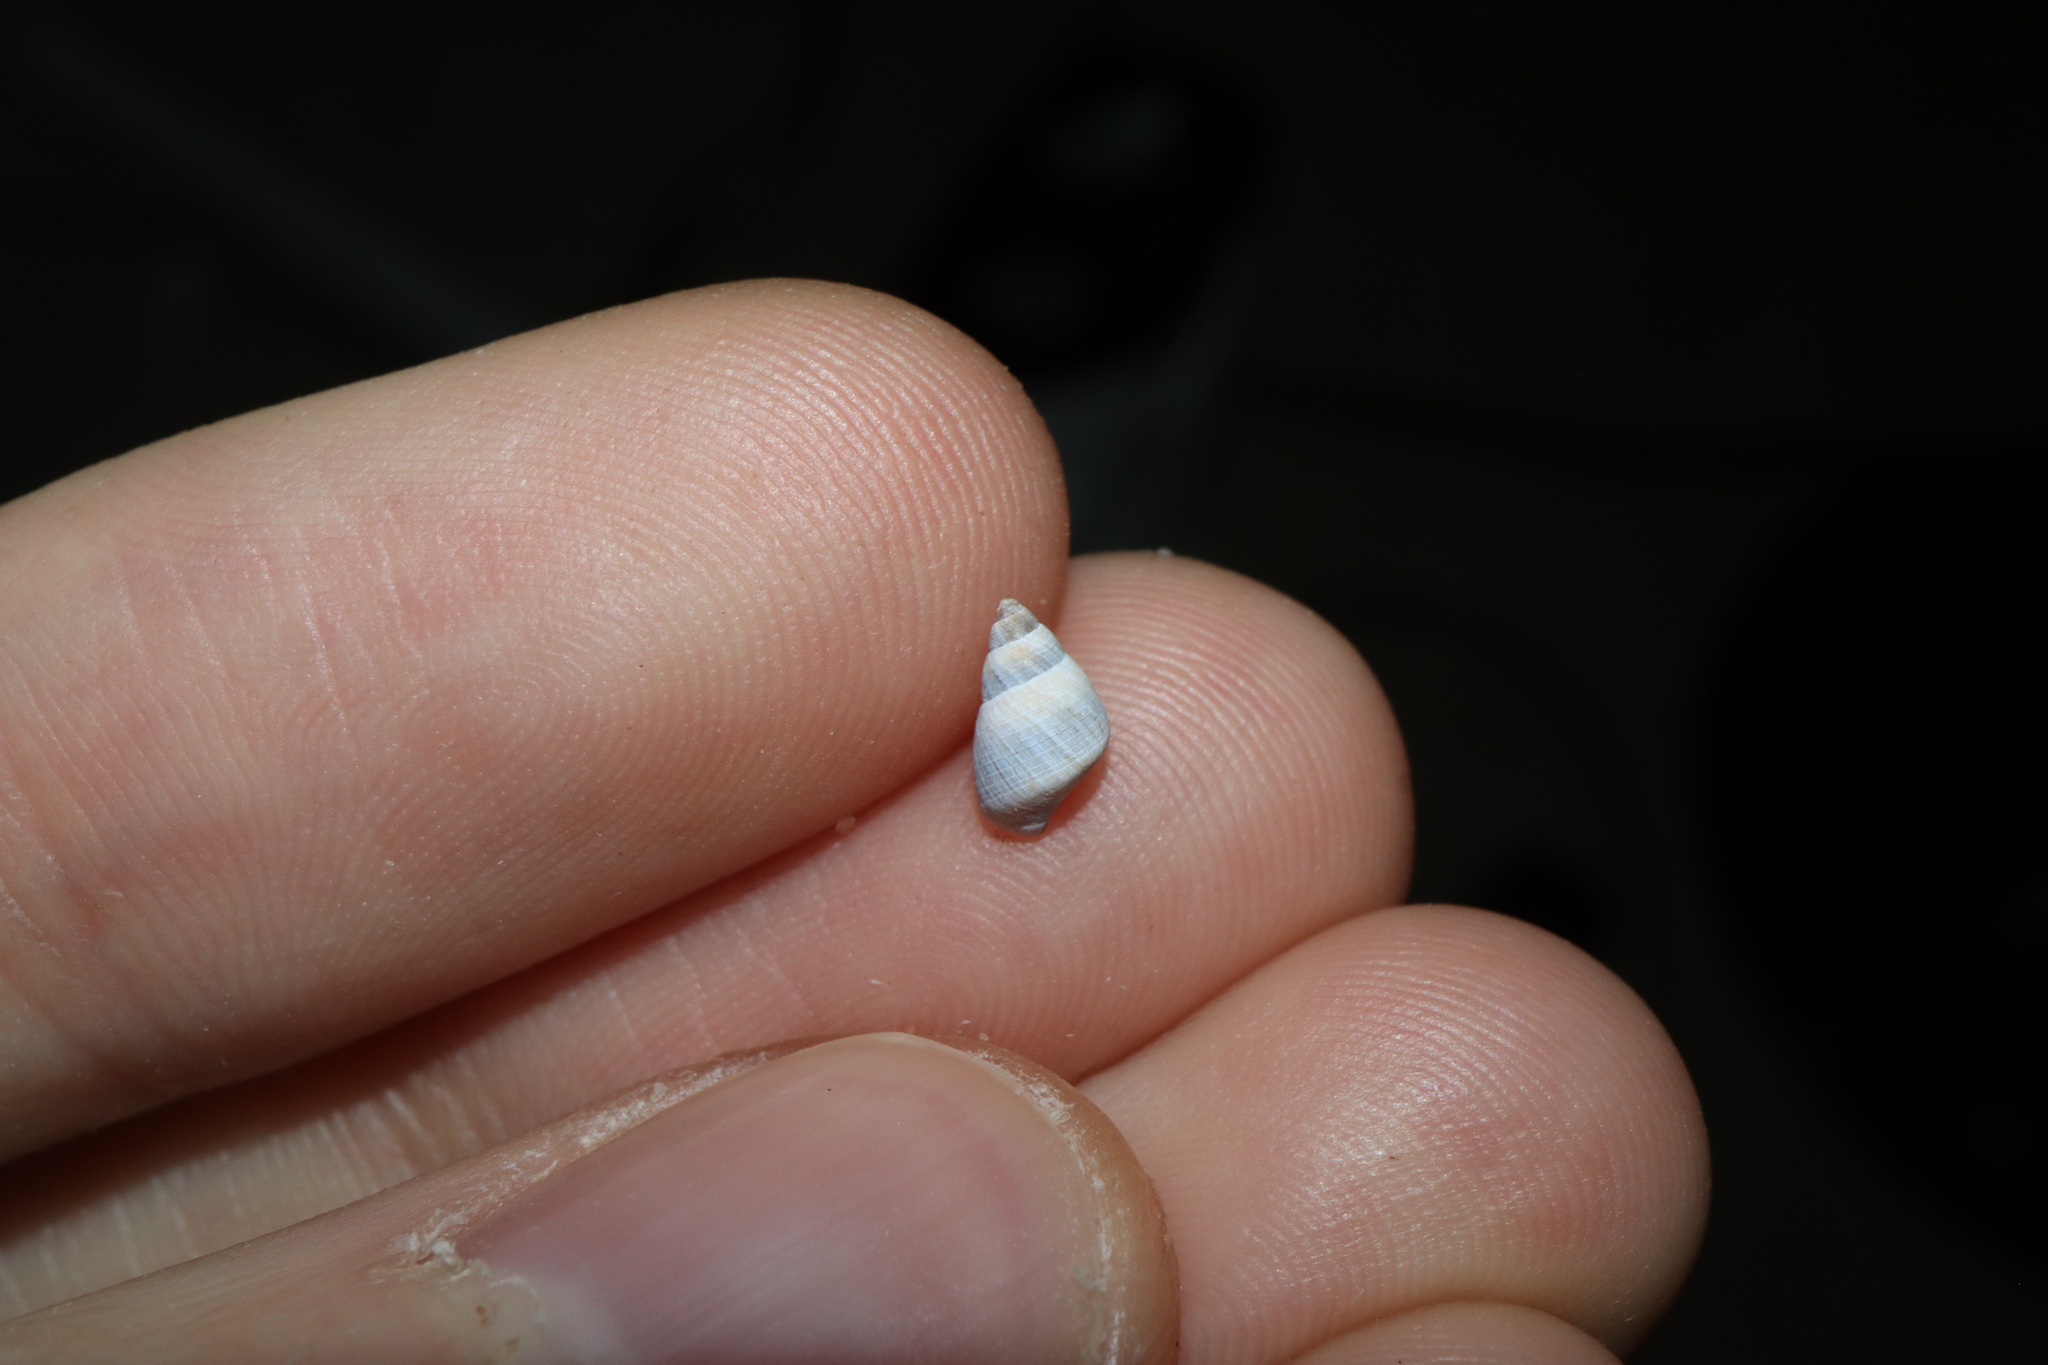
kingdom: Animalia
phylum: Mollusca
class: Gastropoda
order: Littorinimorpha
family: Littorinidae
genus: Austrolittorina
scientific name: Austrolittorina unifasciata
